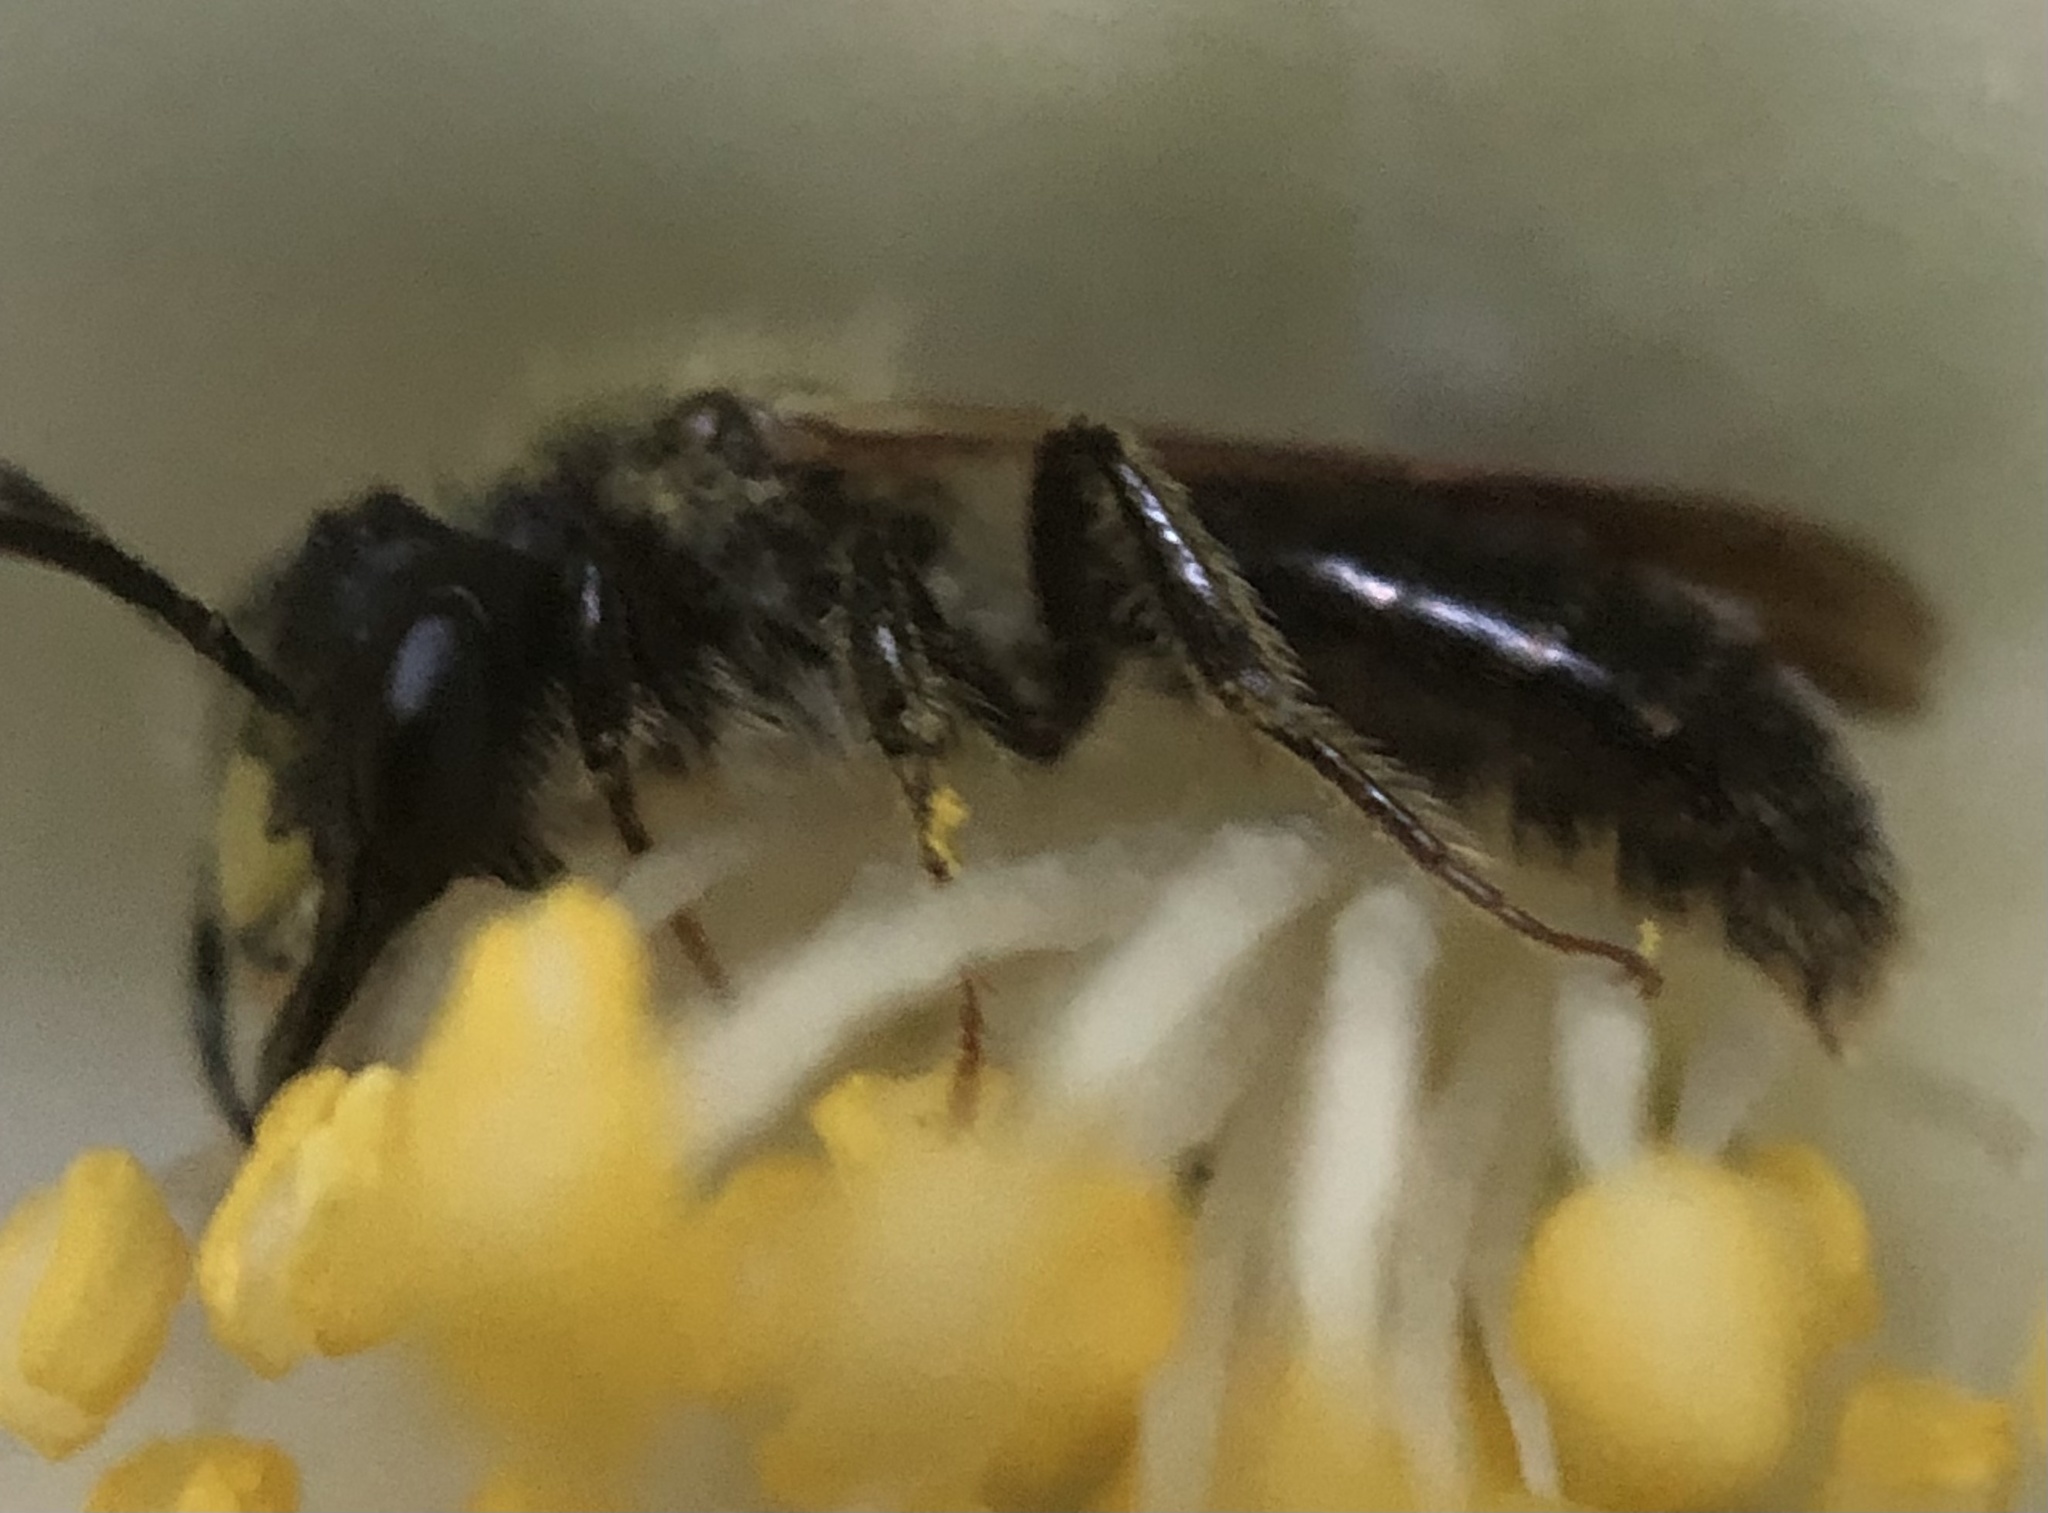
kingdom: Animalia
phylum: Arthropoda
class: Insecta
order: Hymenoptera
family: Andrenidae
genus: Andrena
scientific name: Andrena cerebrata
